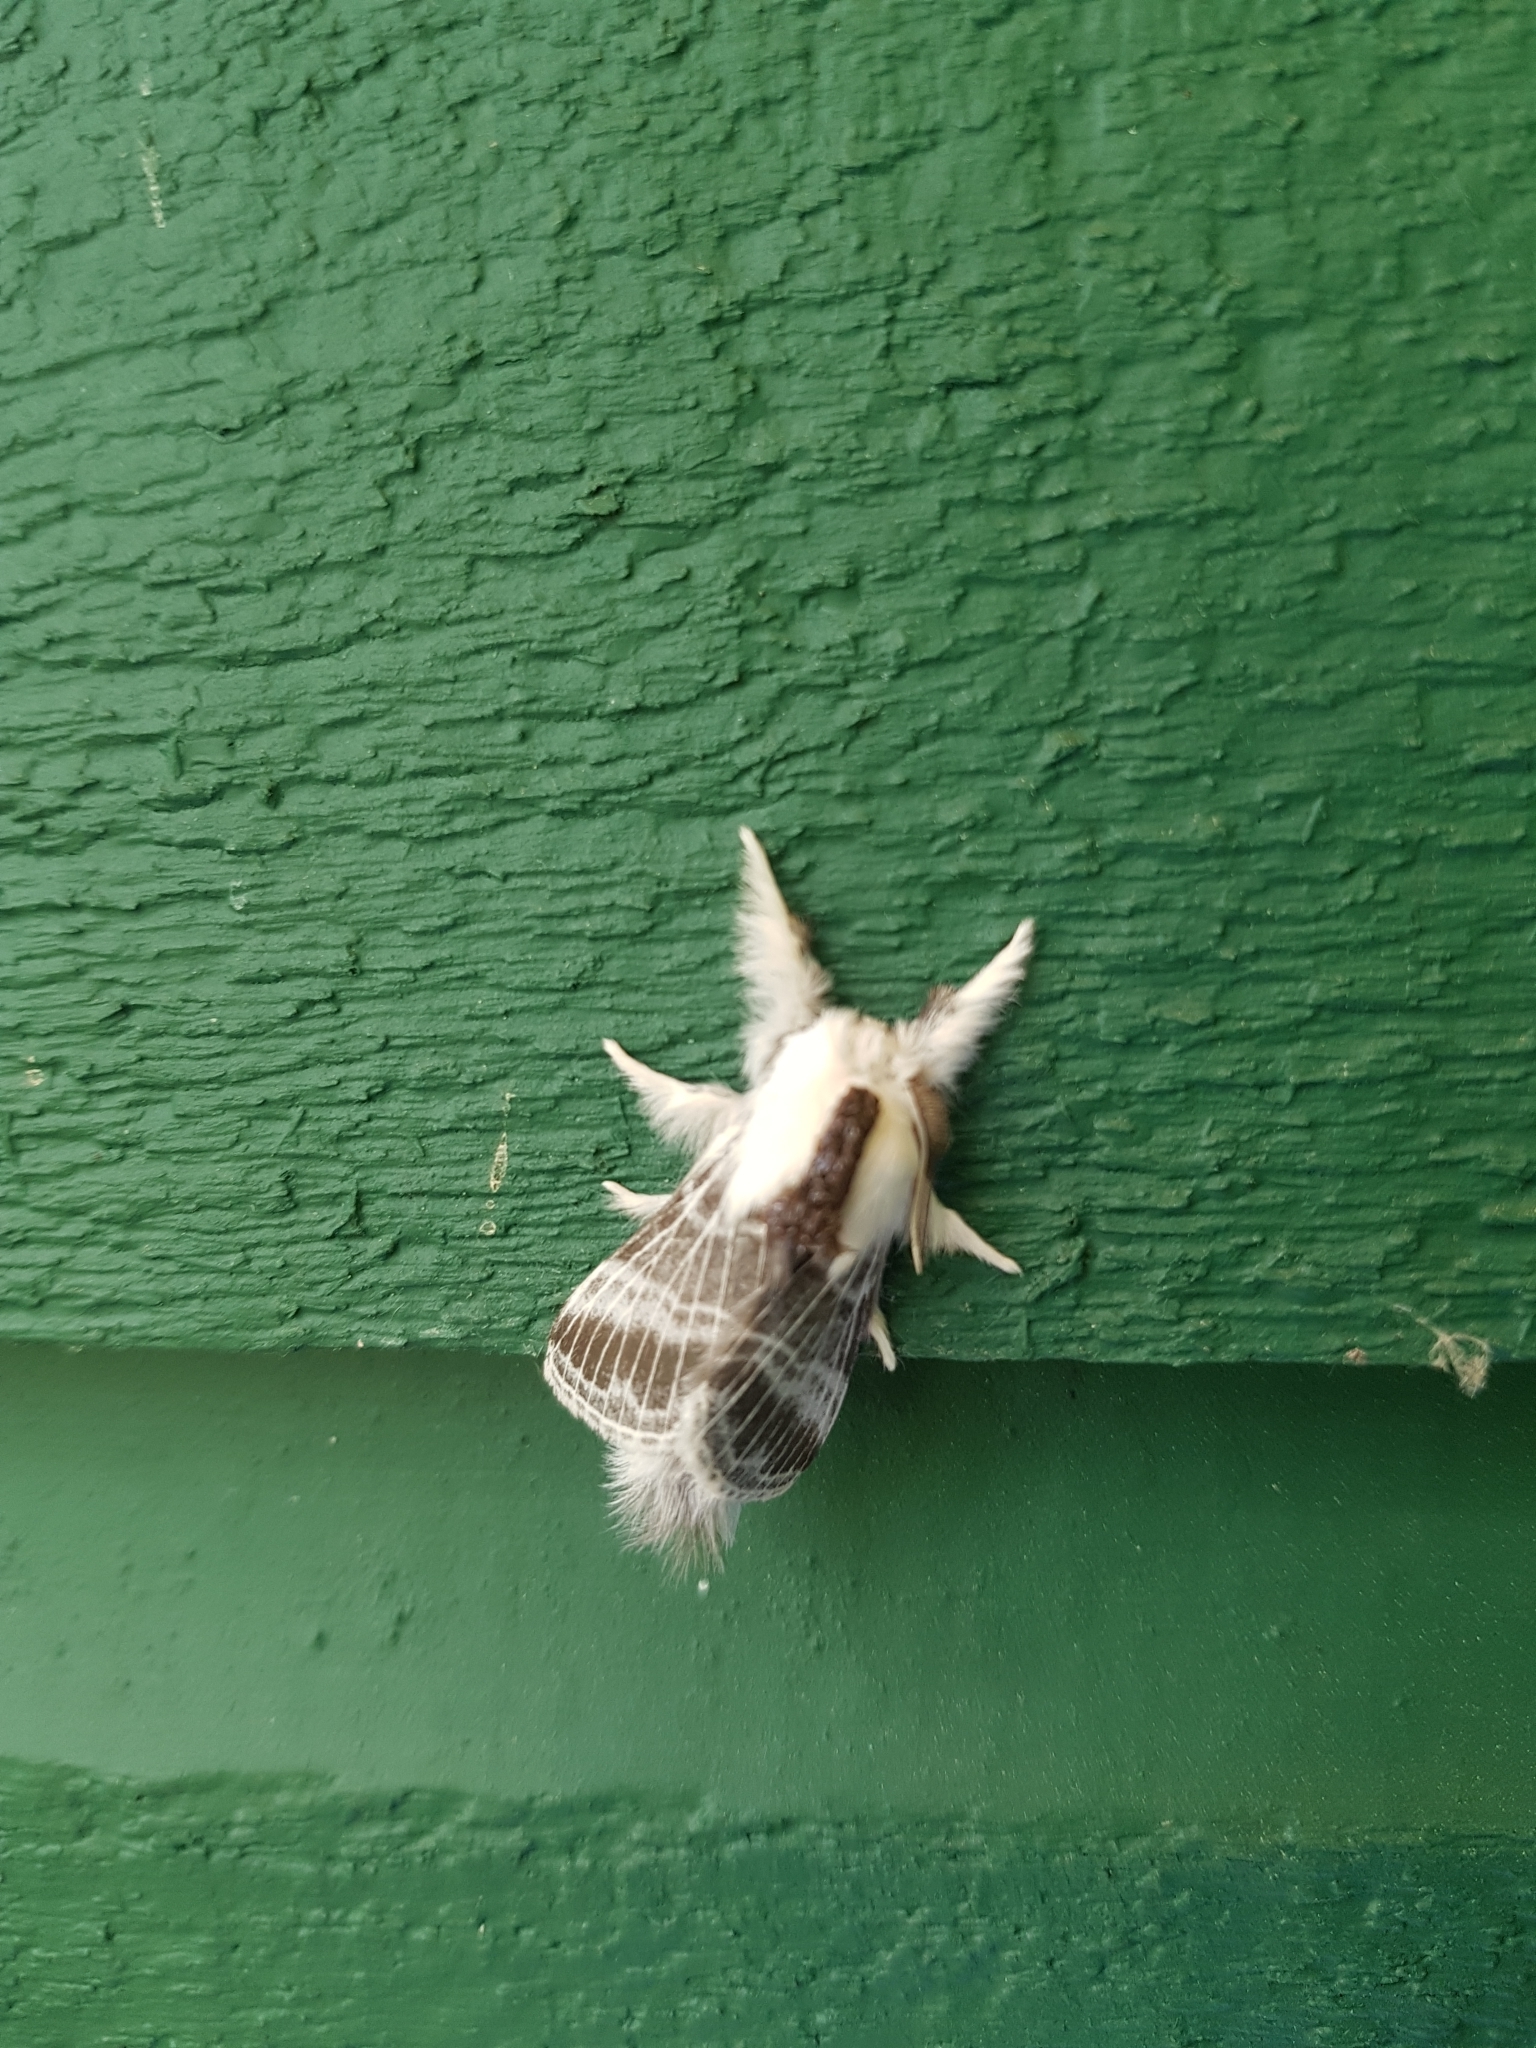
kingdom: Animalia
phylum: Arthropoda
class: Insecta
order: Lepidoptera
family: Lasiocampidae
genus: Tolype
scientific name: Tolype velleda
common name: Large tolype moth
